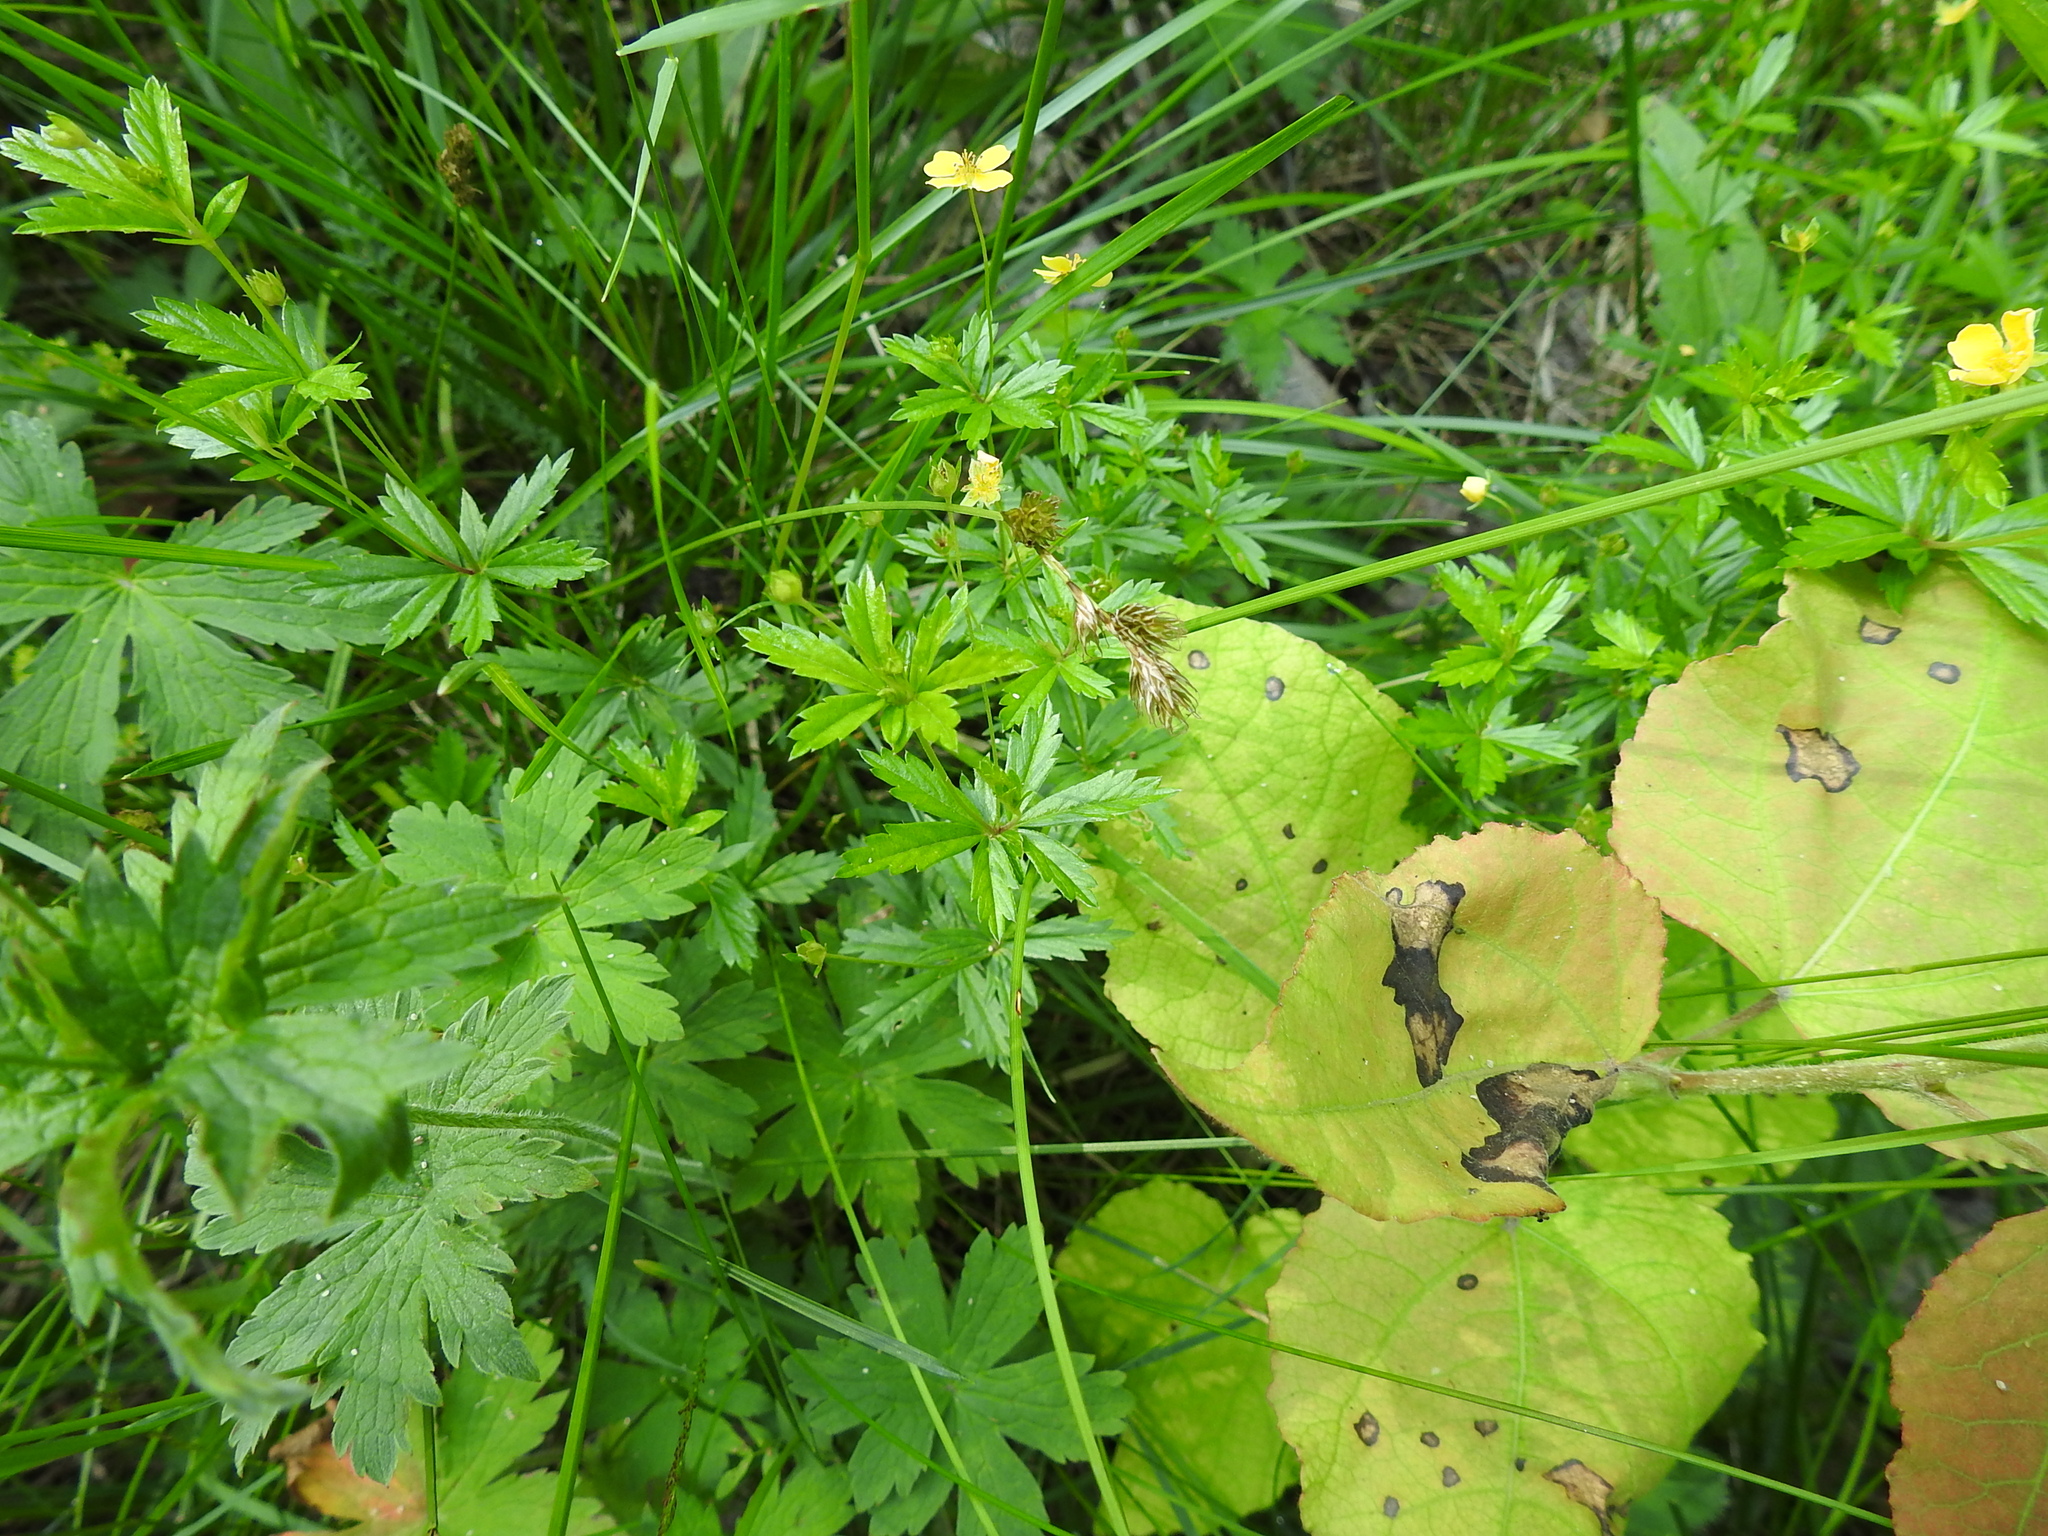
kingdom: Plantae
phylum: Tracheophyta
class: Magnoliopsida
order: Rosales
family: Rosaceae
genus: Potentilla
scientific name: Potentilla erecta
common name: Tormentil
